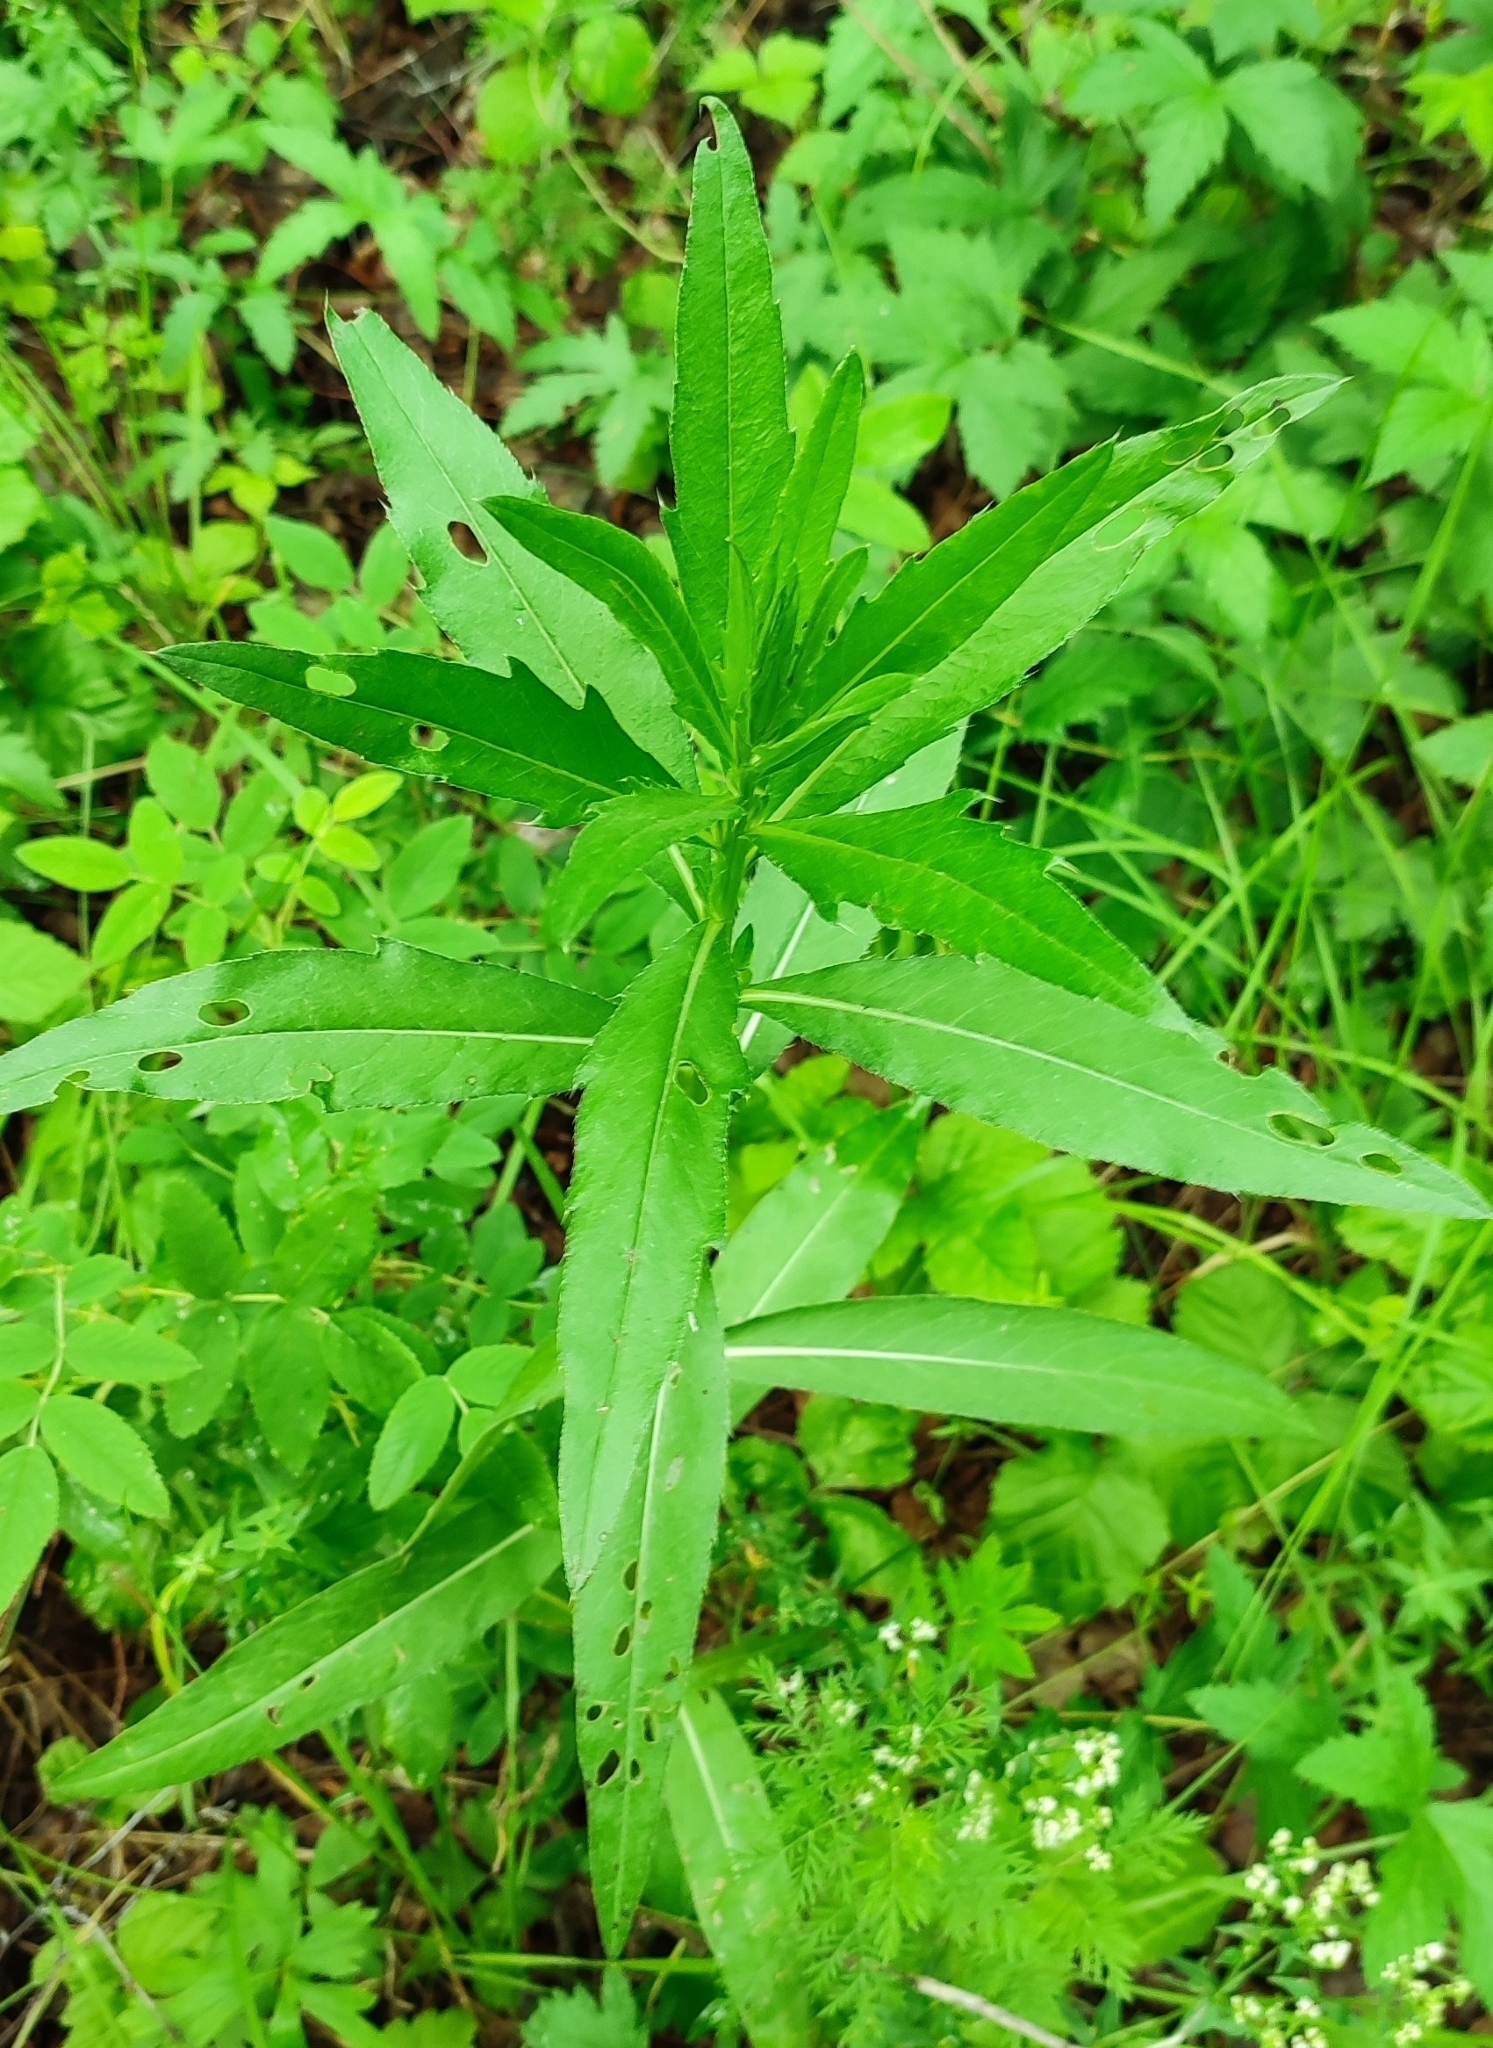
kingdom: Plantae
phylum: Tracheophyta
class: Magnoliopsida
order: Asterales
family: Asteraceae
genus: Cirsium
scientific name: Cirsium arvense
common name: Creeping thistle
